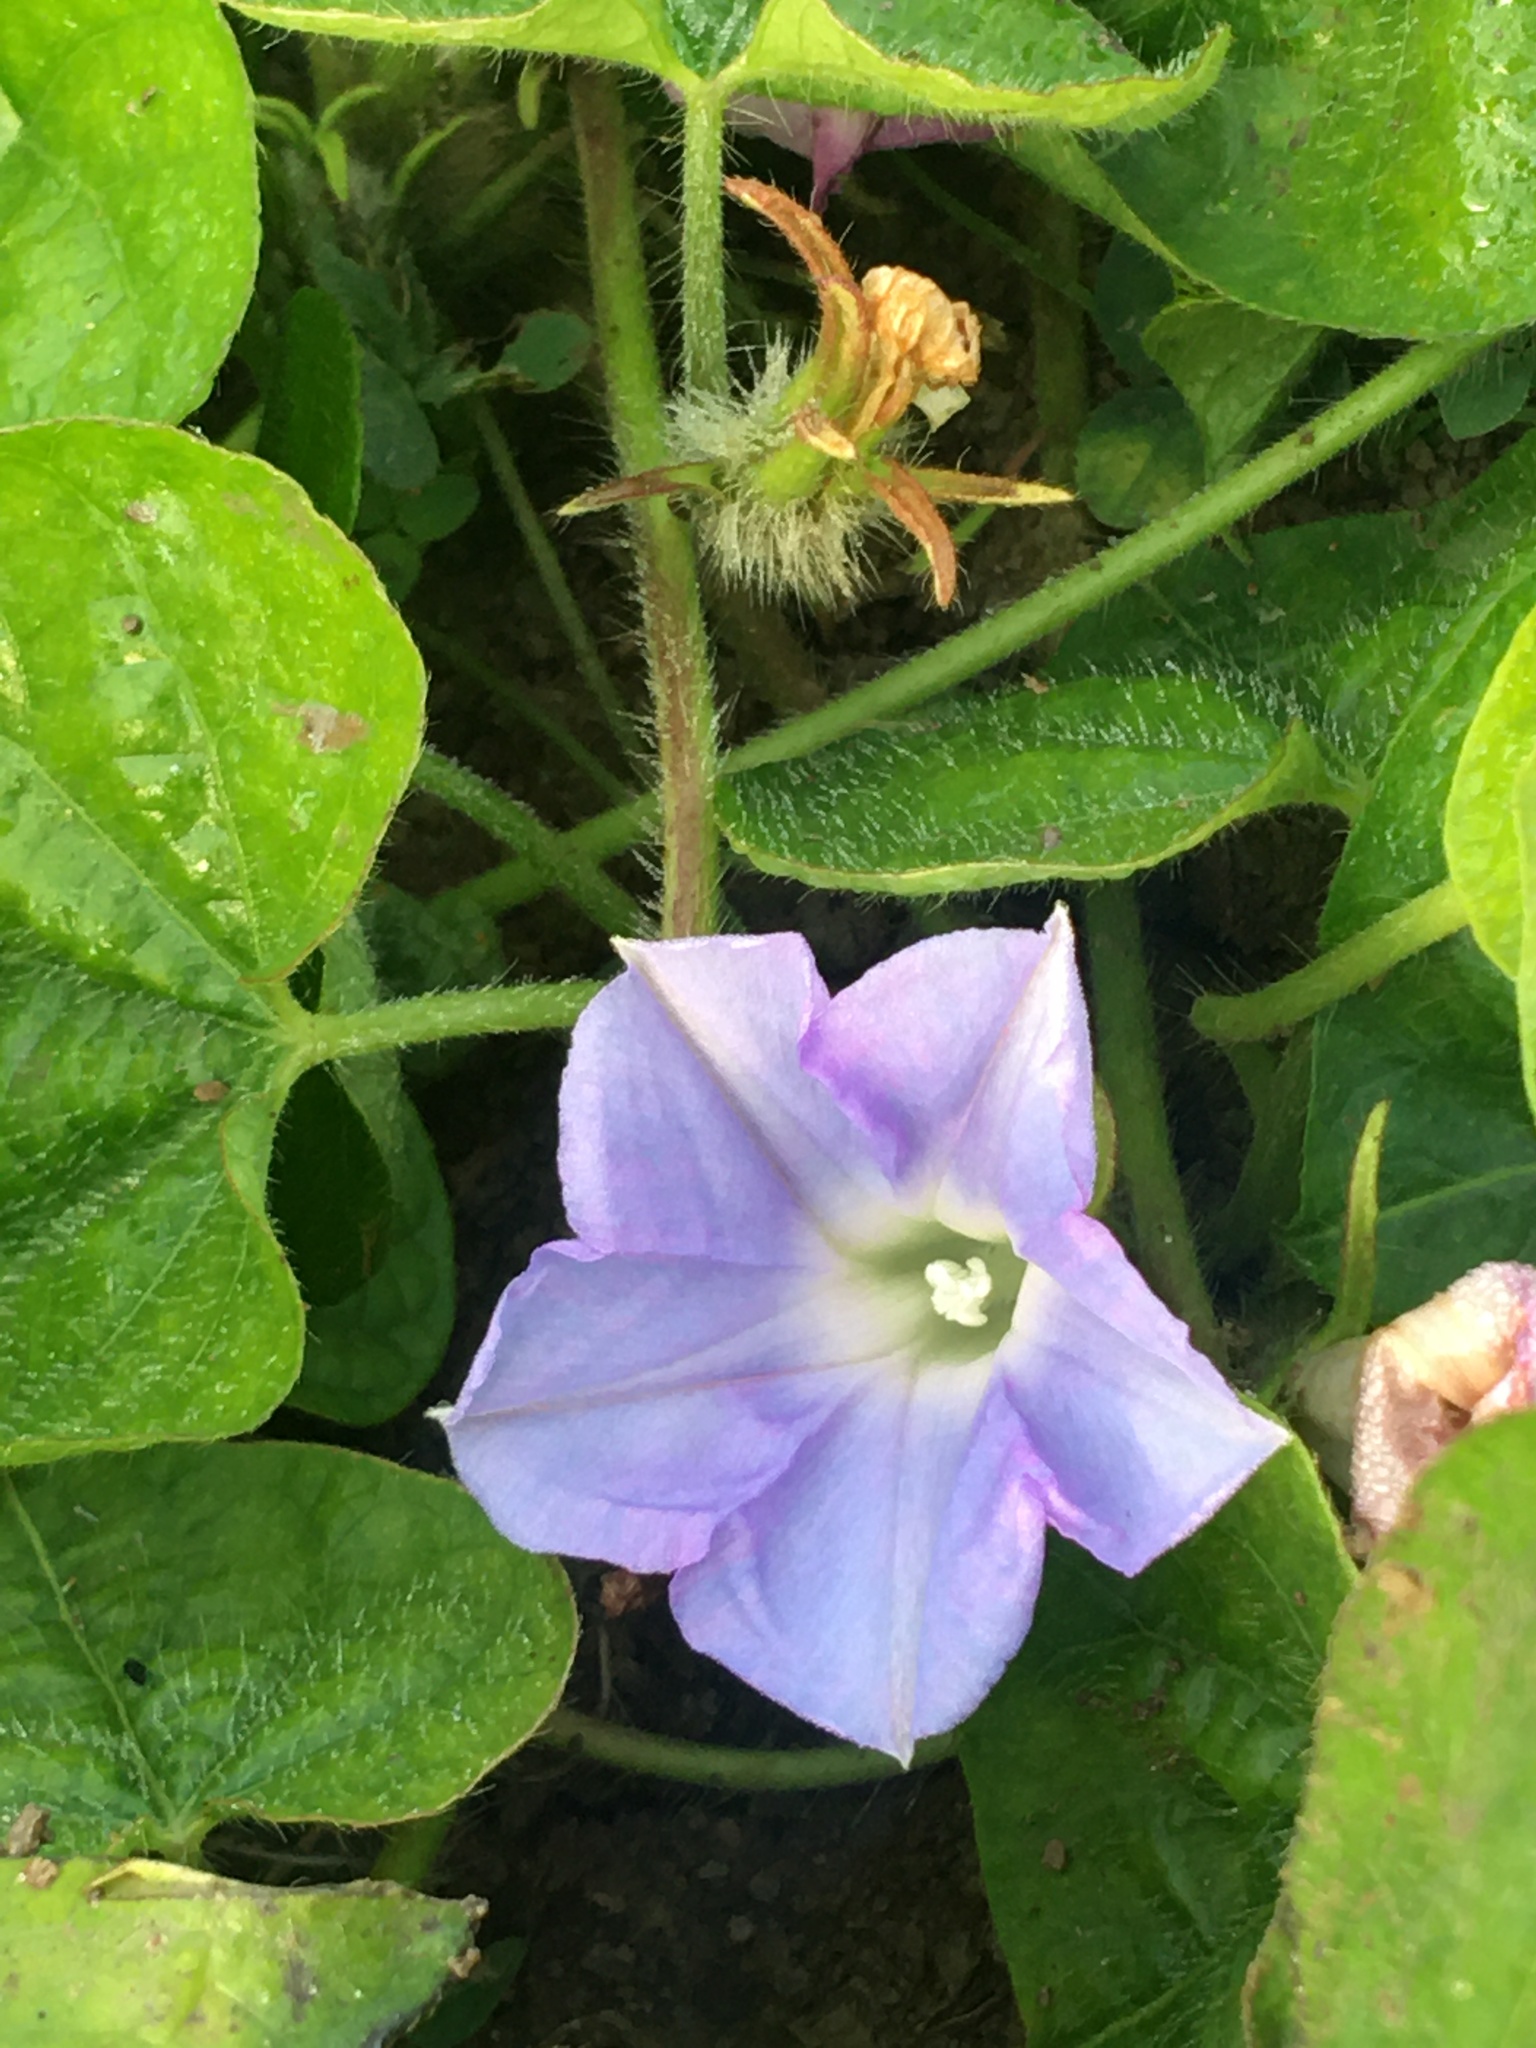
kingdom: Plantae
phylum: Tracheophyta
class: Magnoliopsida
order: Solanales
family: Convolvulaceae
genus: Ipomoea
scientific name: Ipomoea hederacea
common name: Ivy-leaved morning-glory
